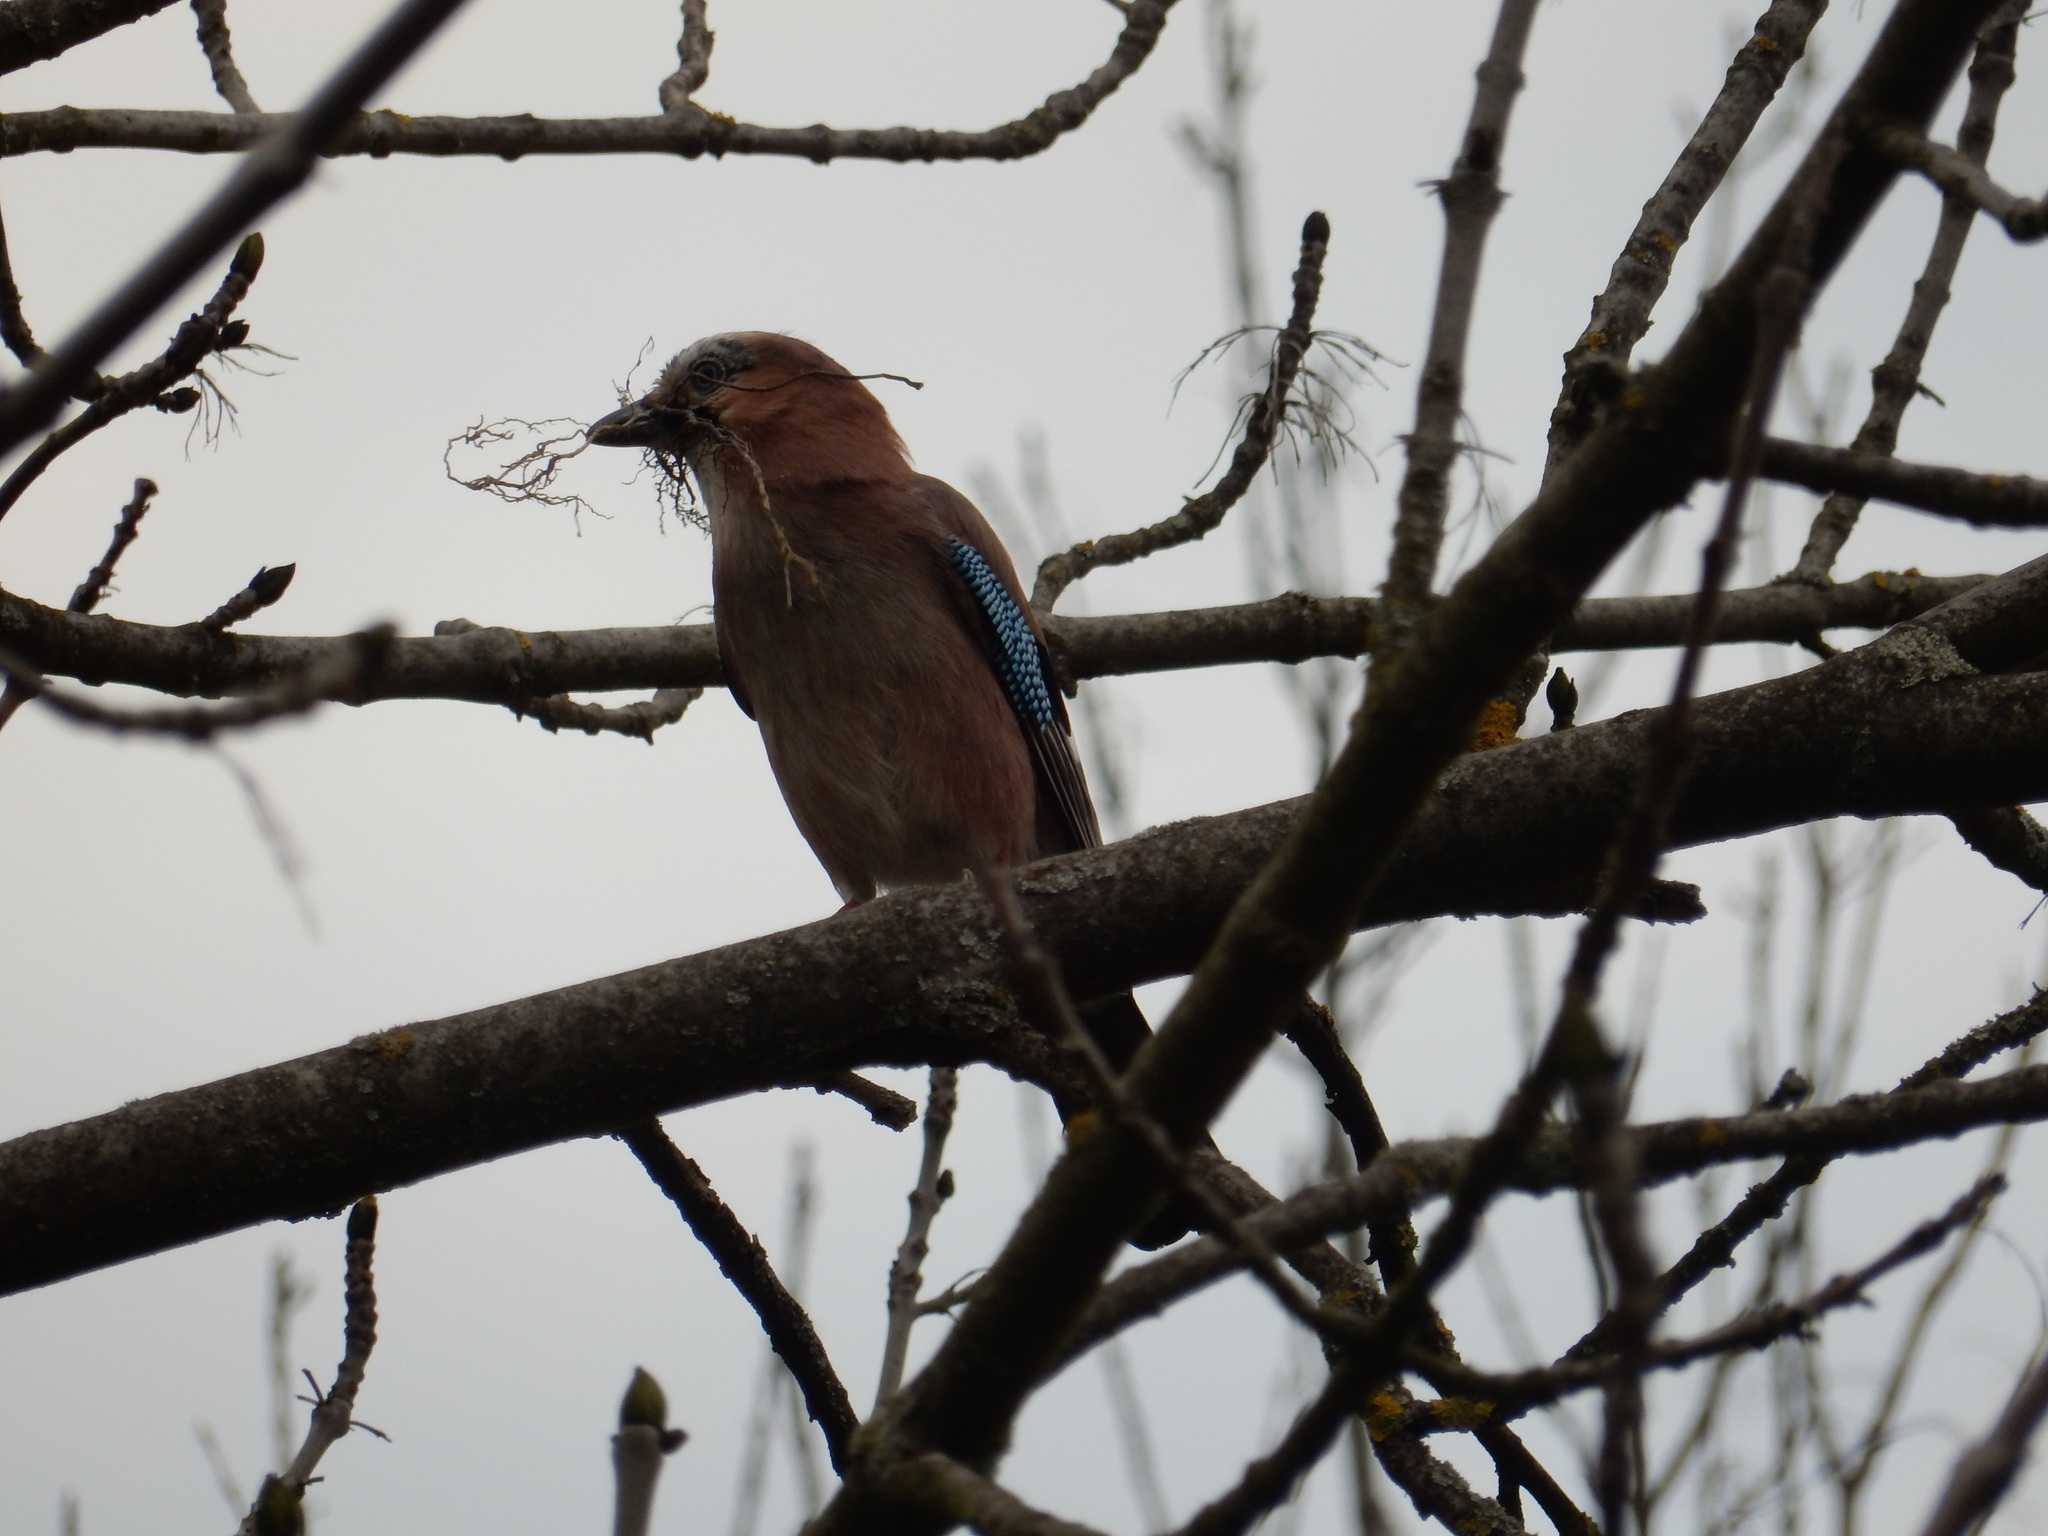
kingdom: Animalia
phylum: Chordata
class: Aves
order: Passeriformes
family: Corvidae
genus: Garrulus
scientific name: Garrulus glandarius
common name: Eurasian jay
